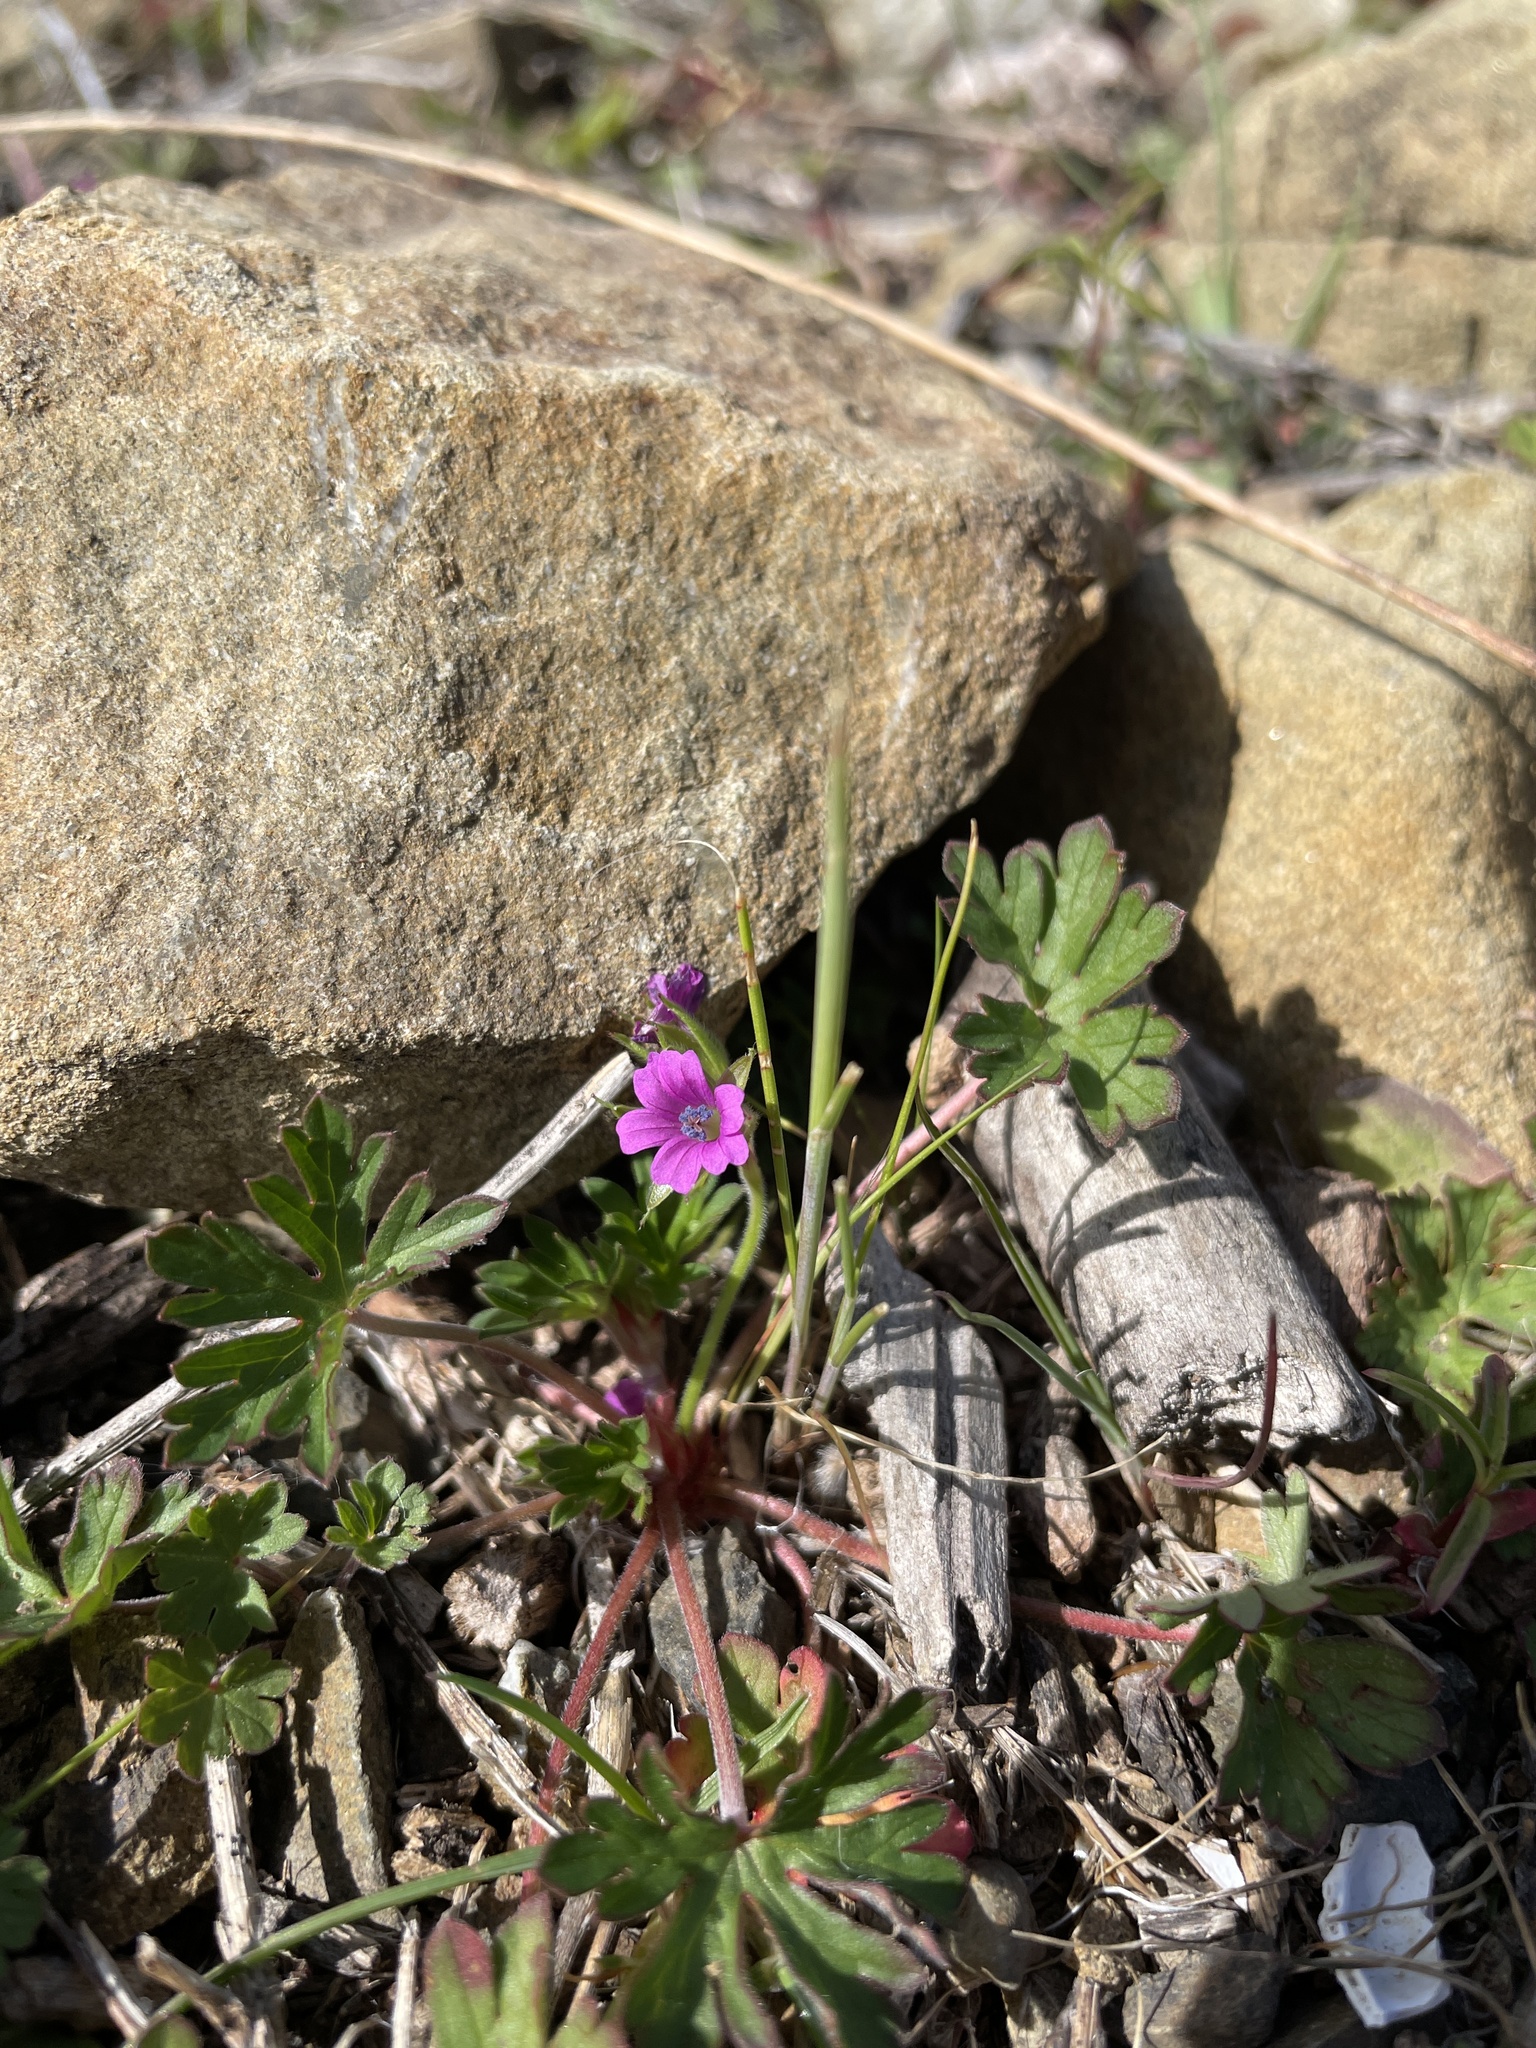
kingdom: Plantae
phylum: Tracheophyta
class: Magnoliopsida
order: Geraniales
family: Geraniaceae
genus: Geranium
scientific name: Geranium dissectum
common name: Cut-leaved crane's-bill
